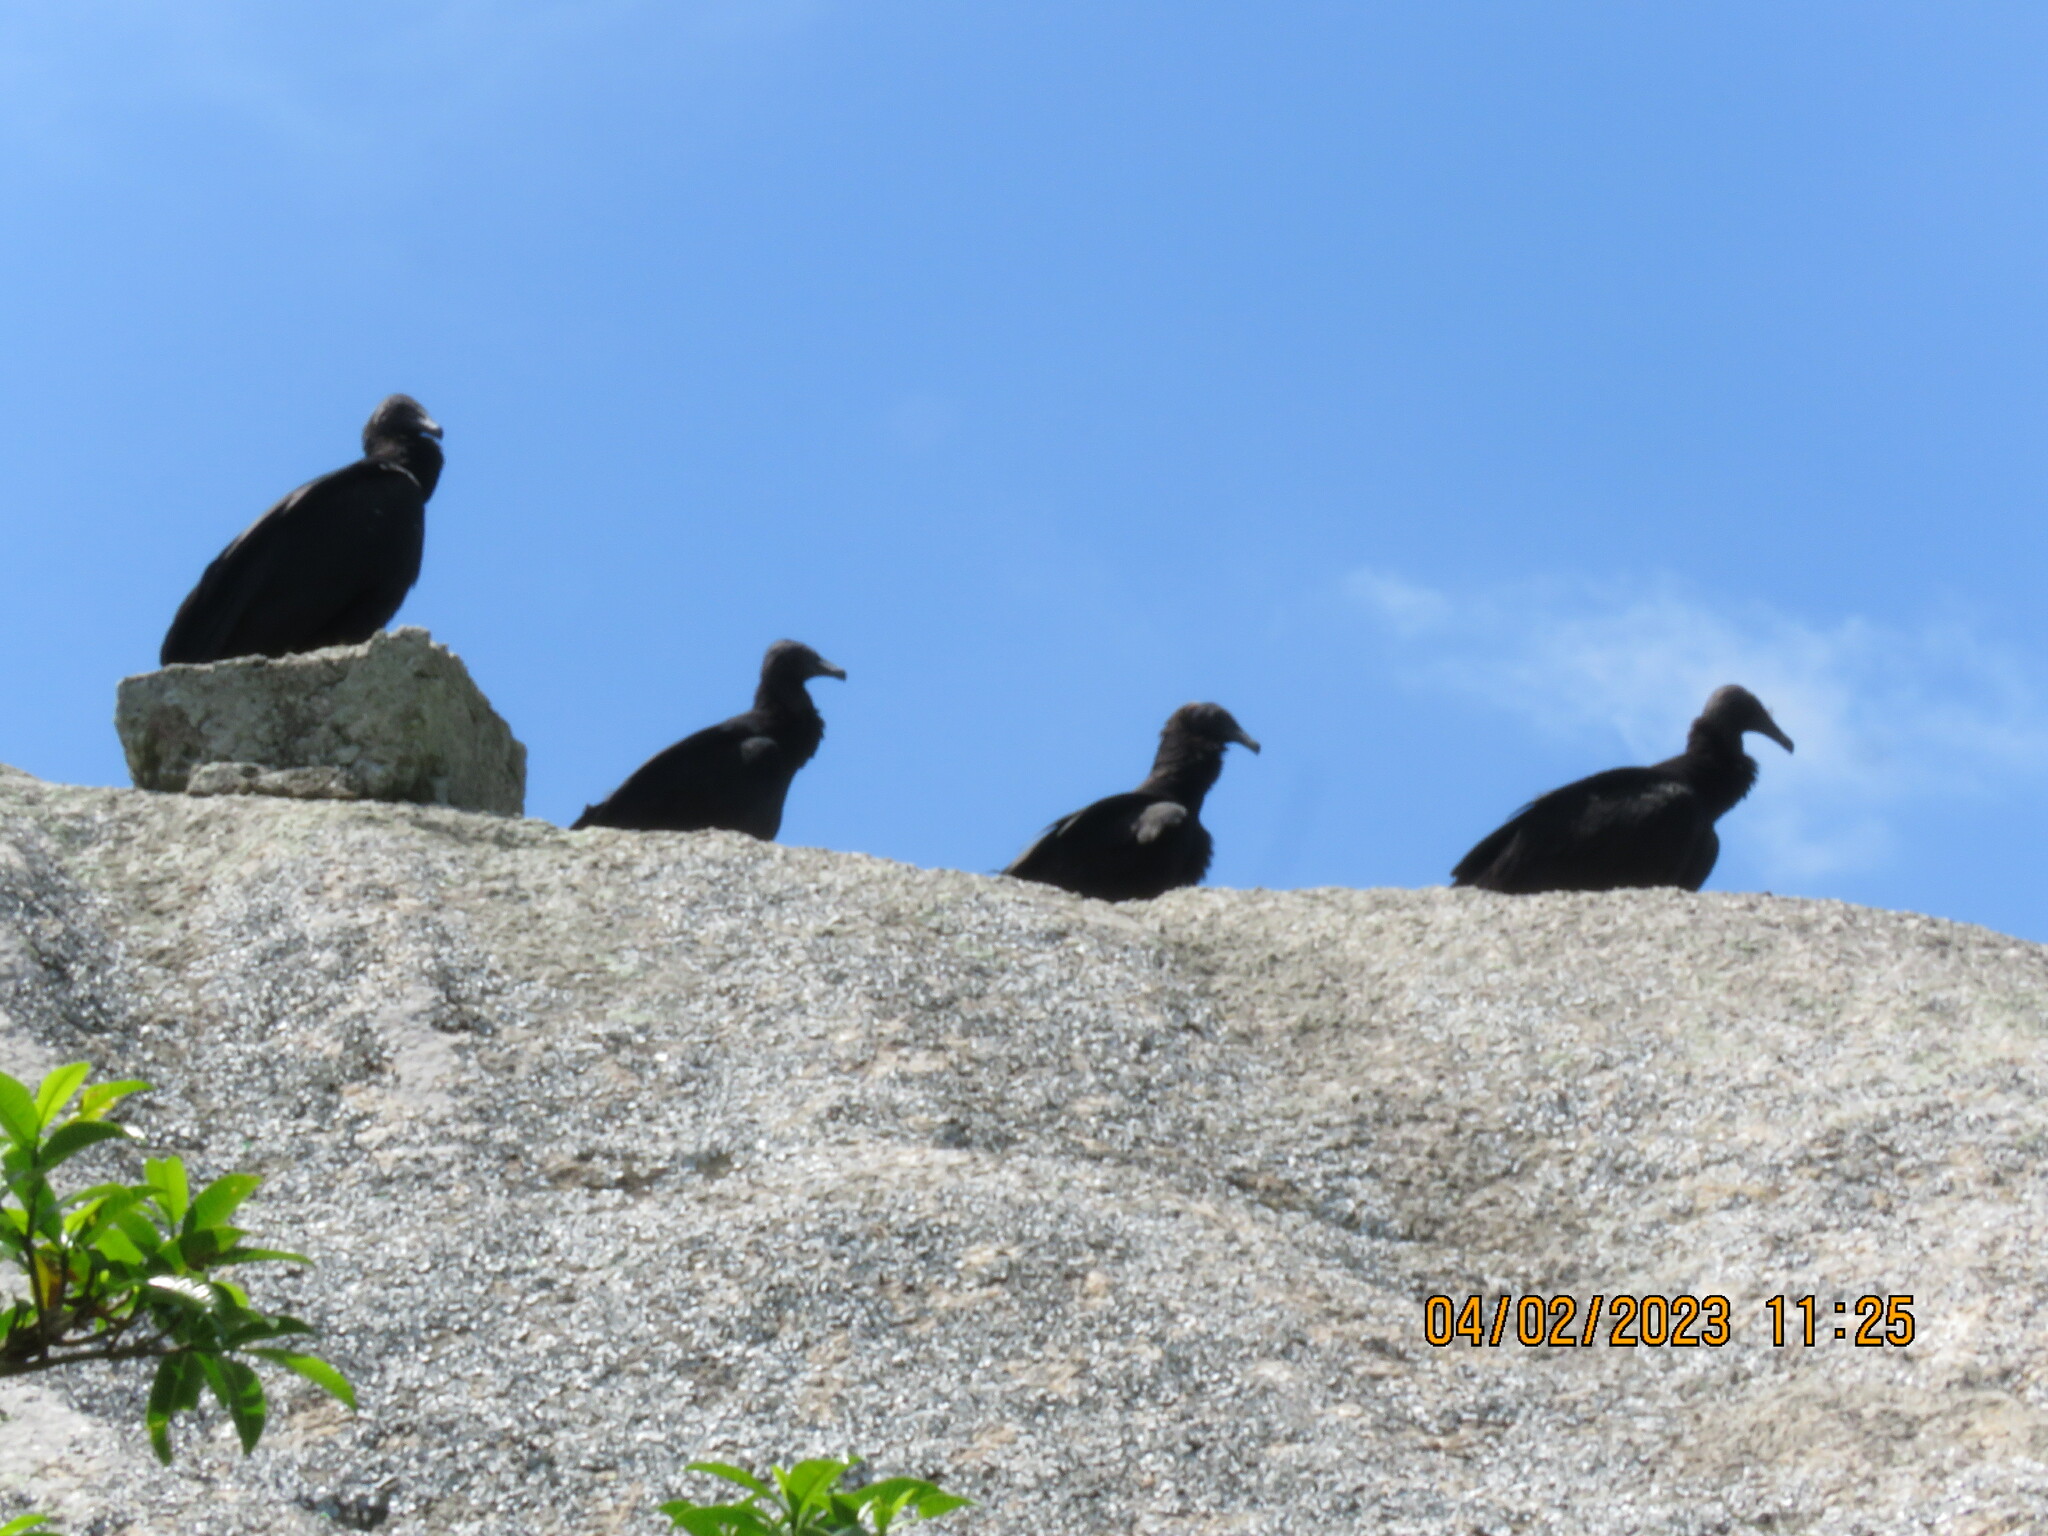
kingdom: Animalia
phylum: Chordata
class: Aves
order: Accipitriformes
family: Cathartidae
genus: Coragyps
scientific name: Coragyps atratus
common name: Black vulture
